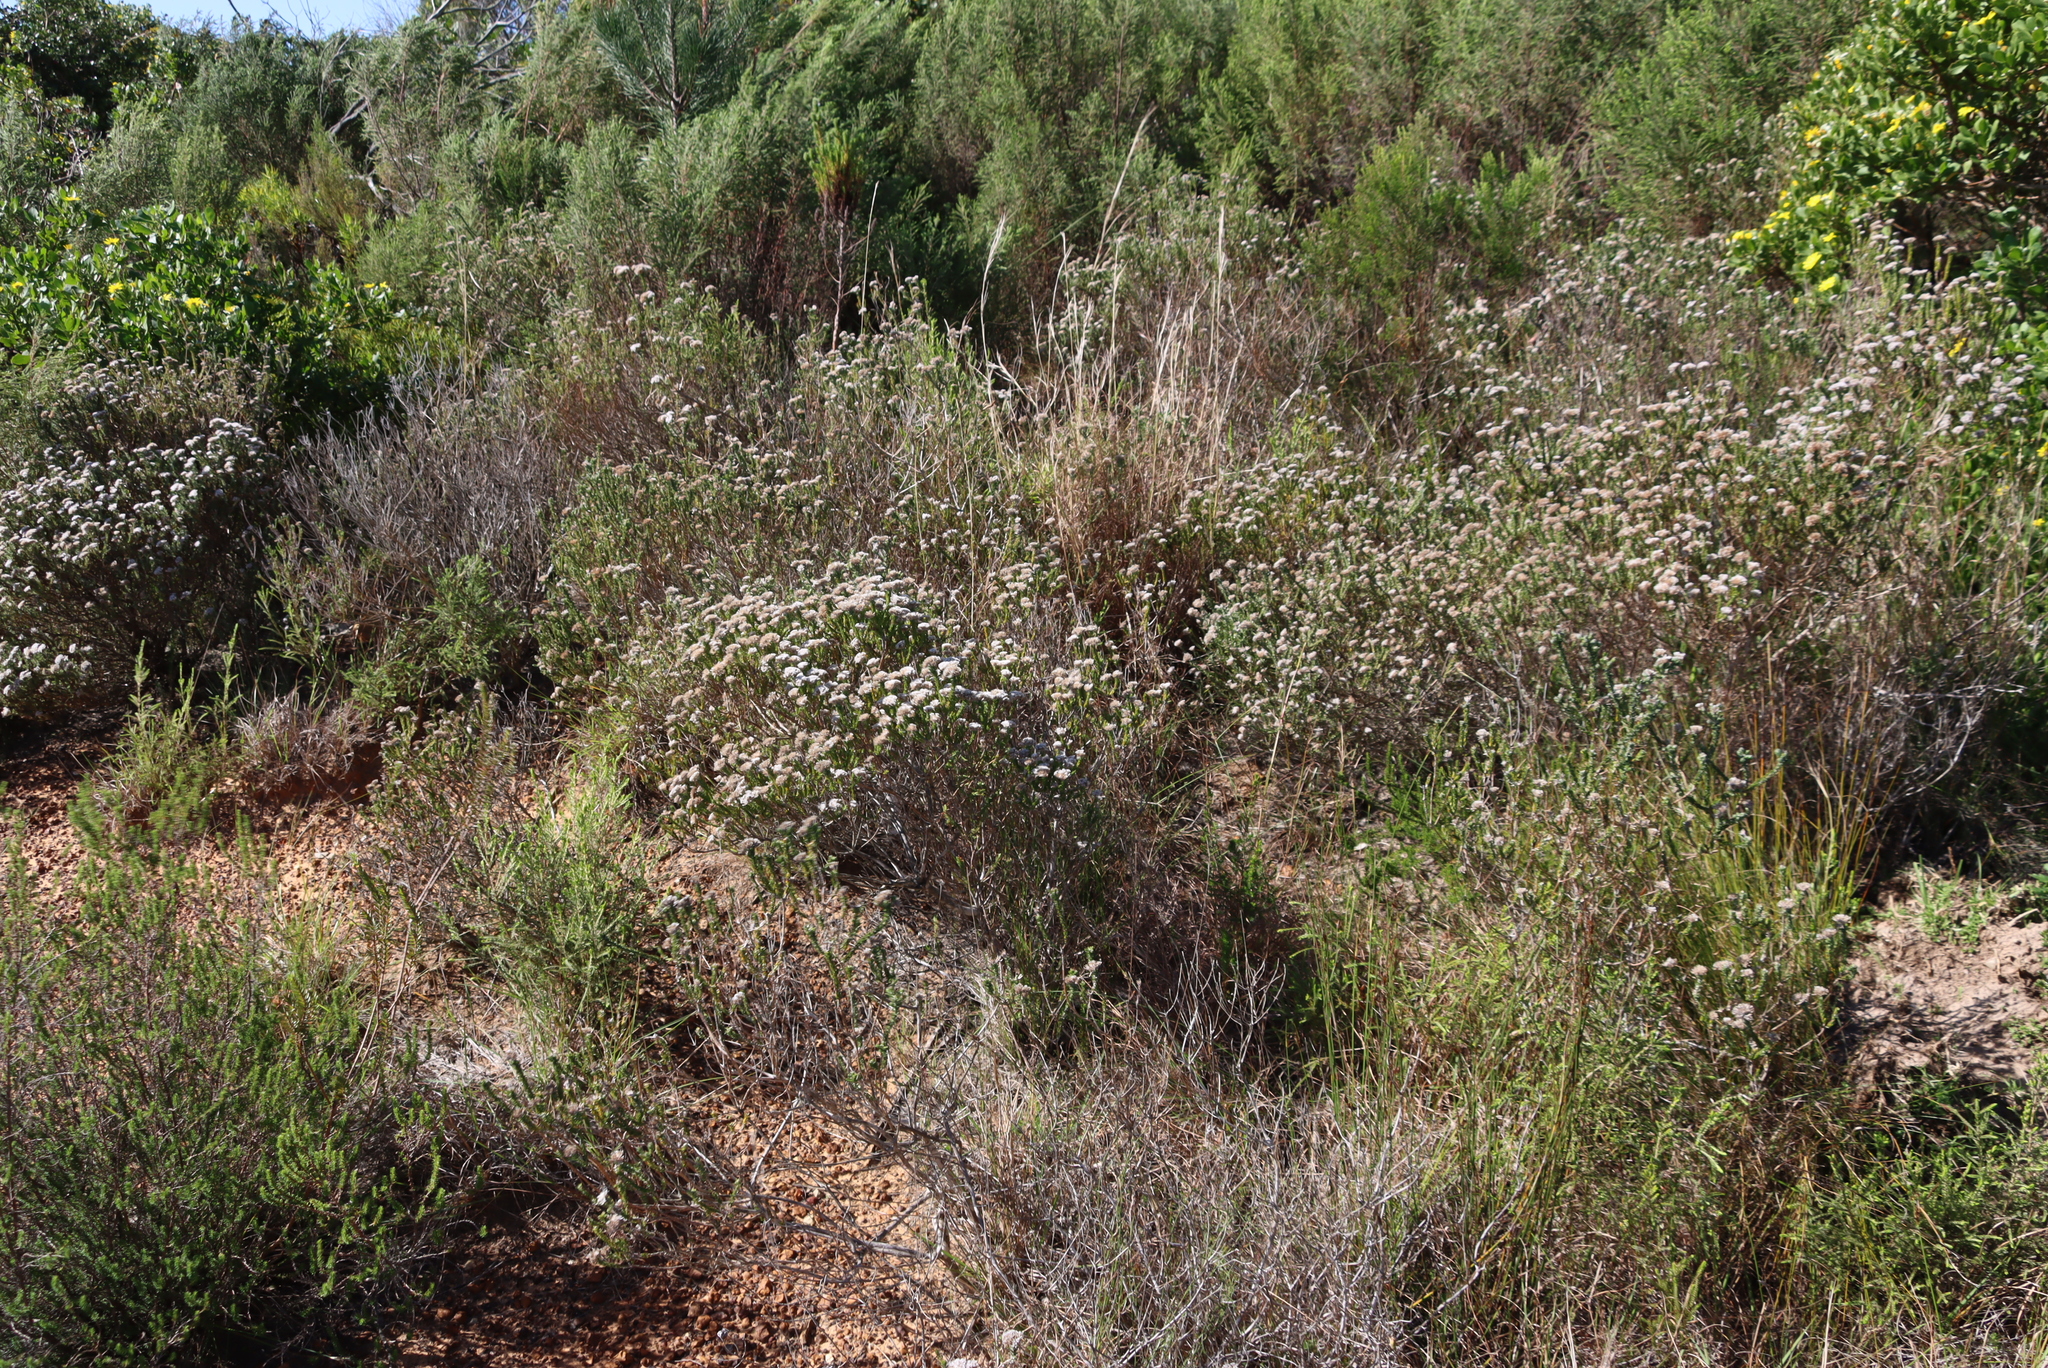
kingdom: Plantae
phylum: Tracheophyta
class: Magnoliopsida
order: Asterales
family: Asteraceae
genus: Metalasia
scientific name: Metalasia pungens
